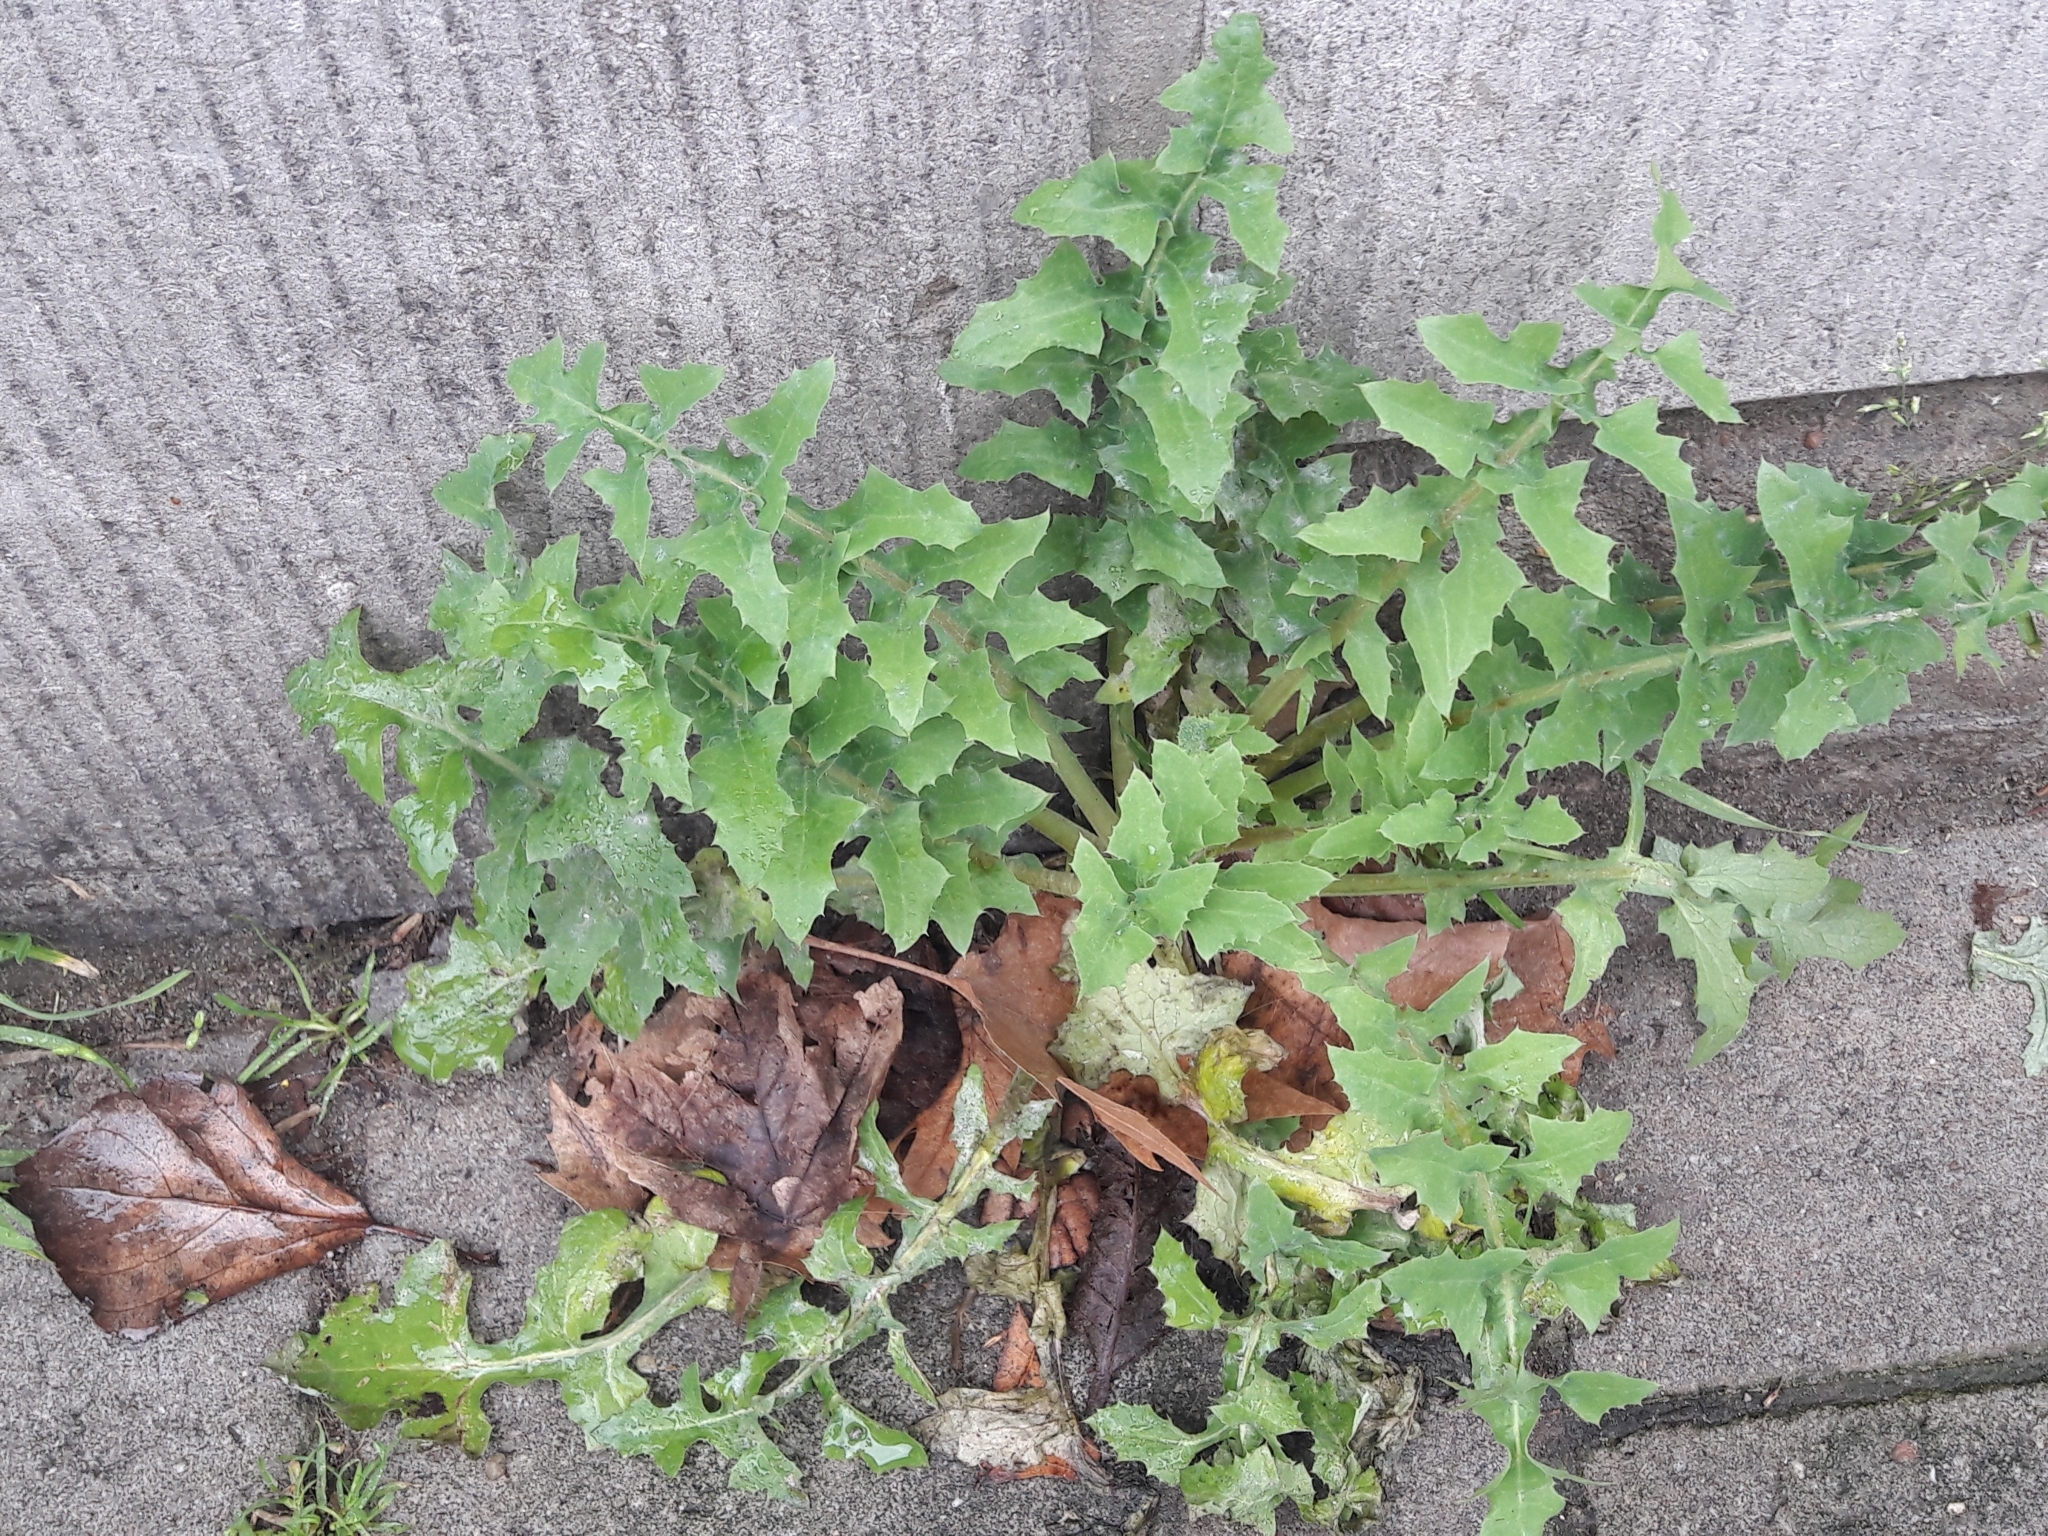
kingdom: Plantae
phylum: Tracheophyta
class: Magnoliopsida
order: Asterales
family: Asteraceae
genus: Sonchus
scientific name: Sonchus oleraceus
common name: Common sowthistle
